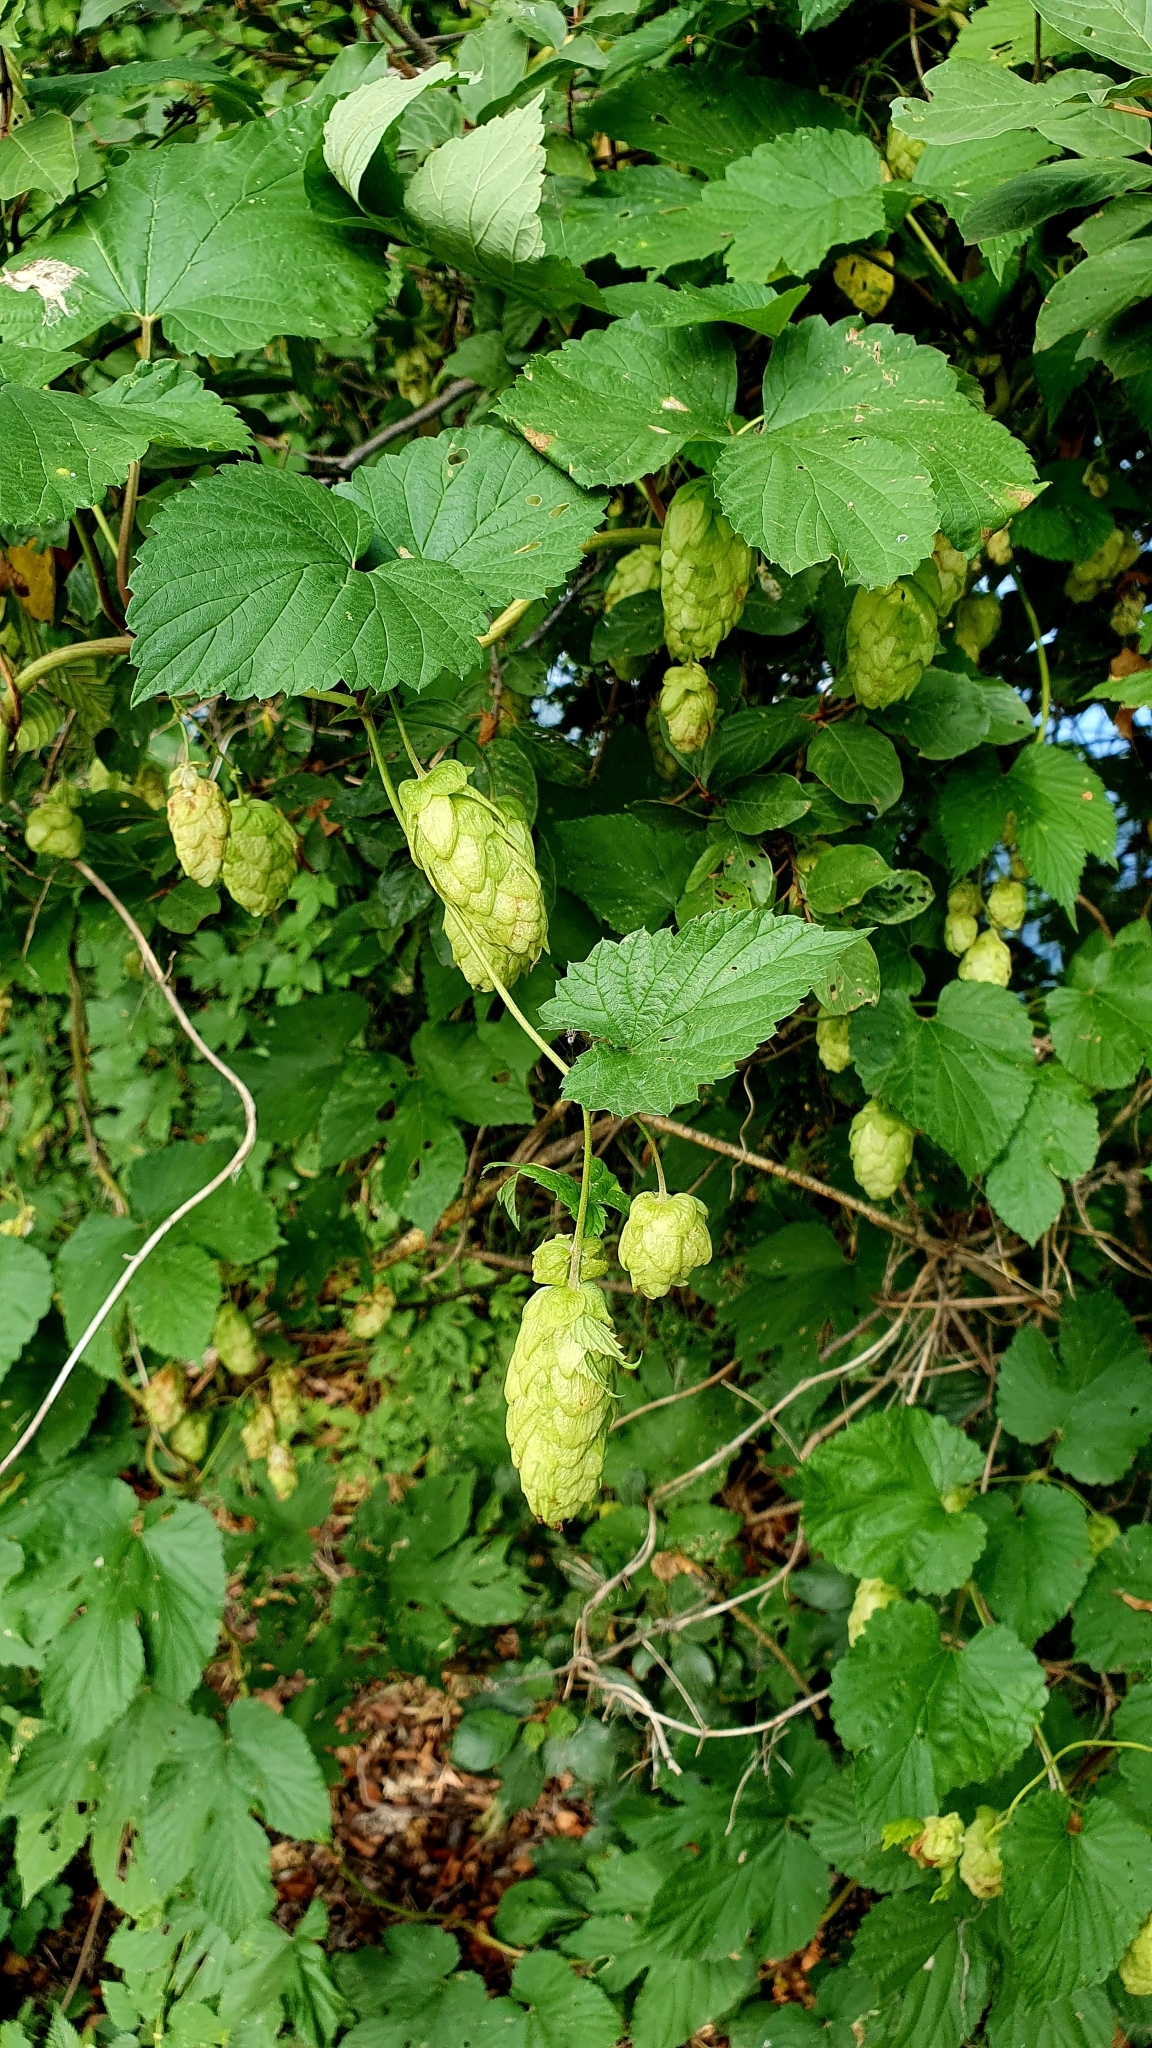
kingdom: Plantae
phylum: Tracheophyta
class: Magnoliopsida
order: Rosales
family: Cannabaceae
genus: Humulus
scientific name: Humulus lupulus
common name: Hop
